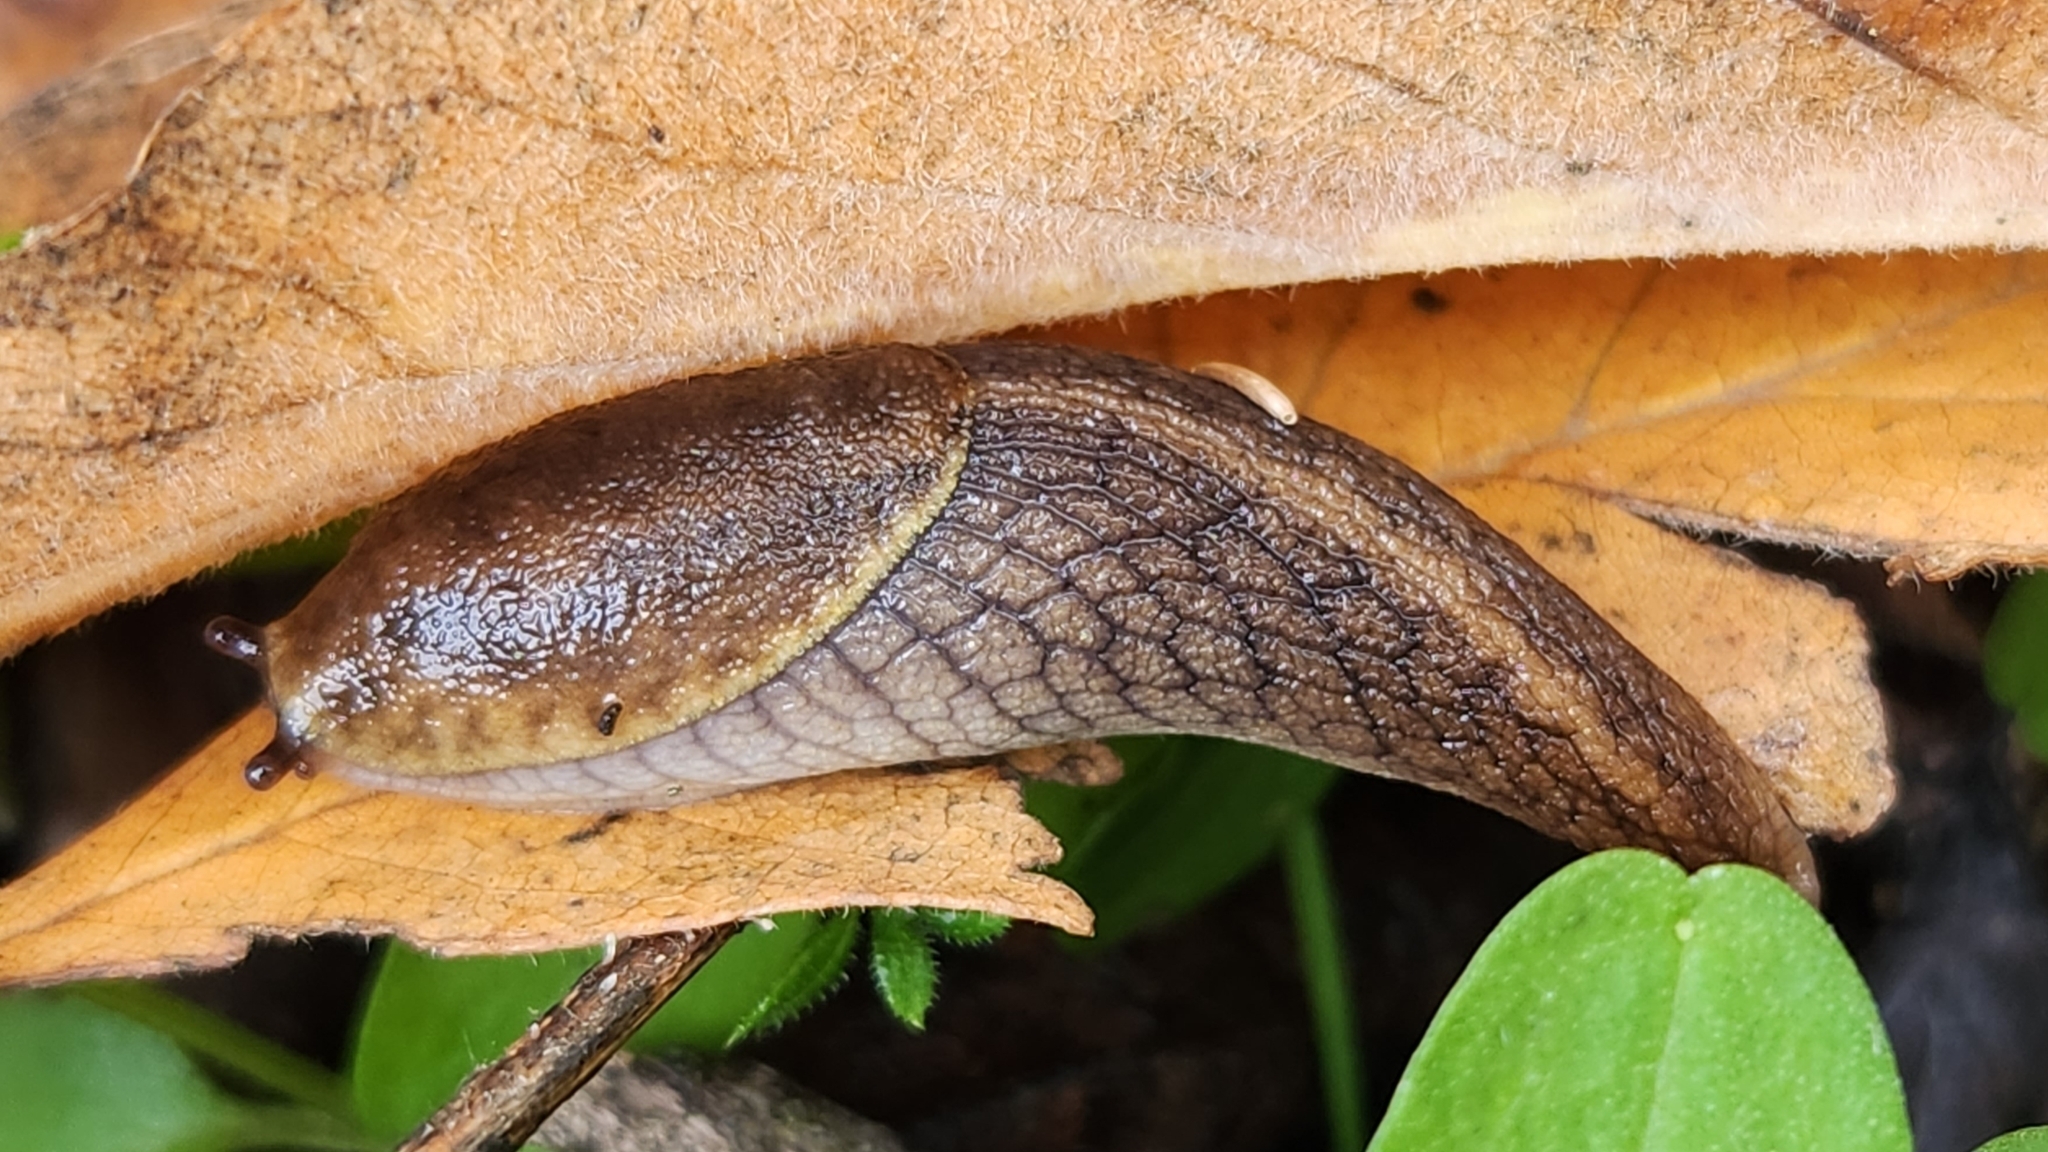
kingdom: Animalia
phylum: Mollusca
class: Gastropoda
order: Stylommatophora
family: Ariolimacidae
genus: Prophysaon
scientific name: Prophysaon andersonii
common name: Reticulate taildropper
